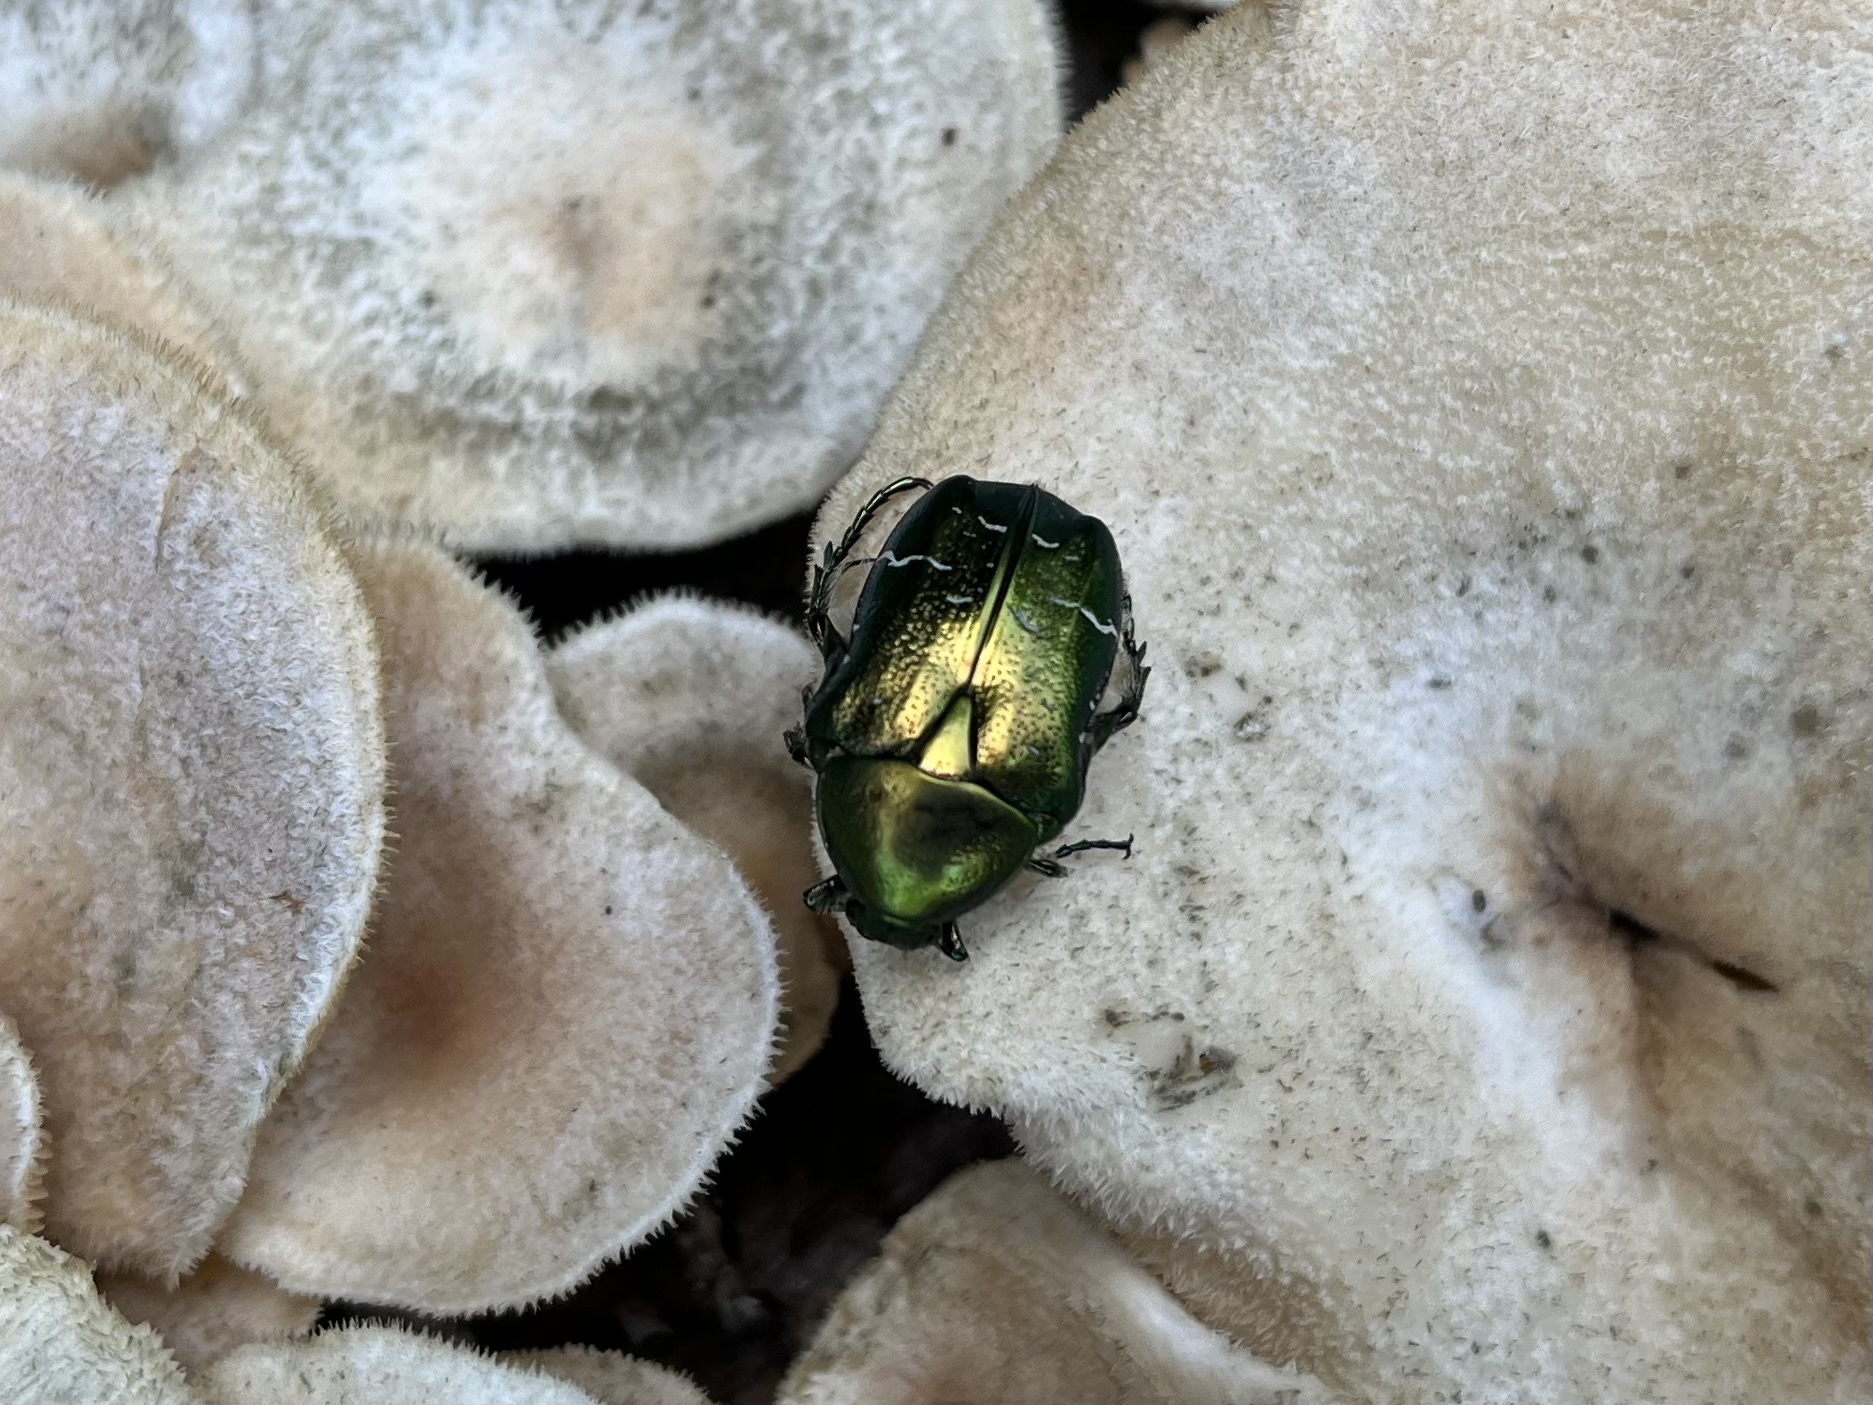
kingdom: Animalia
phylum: Arthropoda
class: Insecta
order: Coleoptera
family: Scarabaeidae
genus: Cetonia
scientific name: Cetonia aurata
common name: Rose chafer
